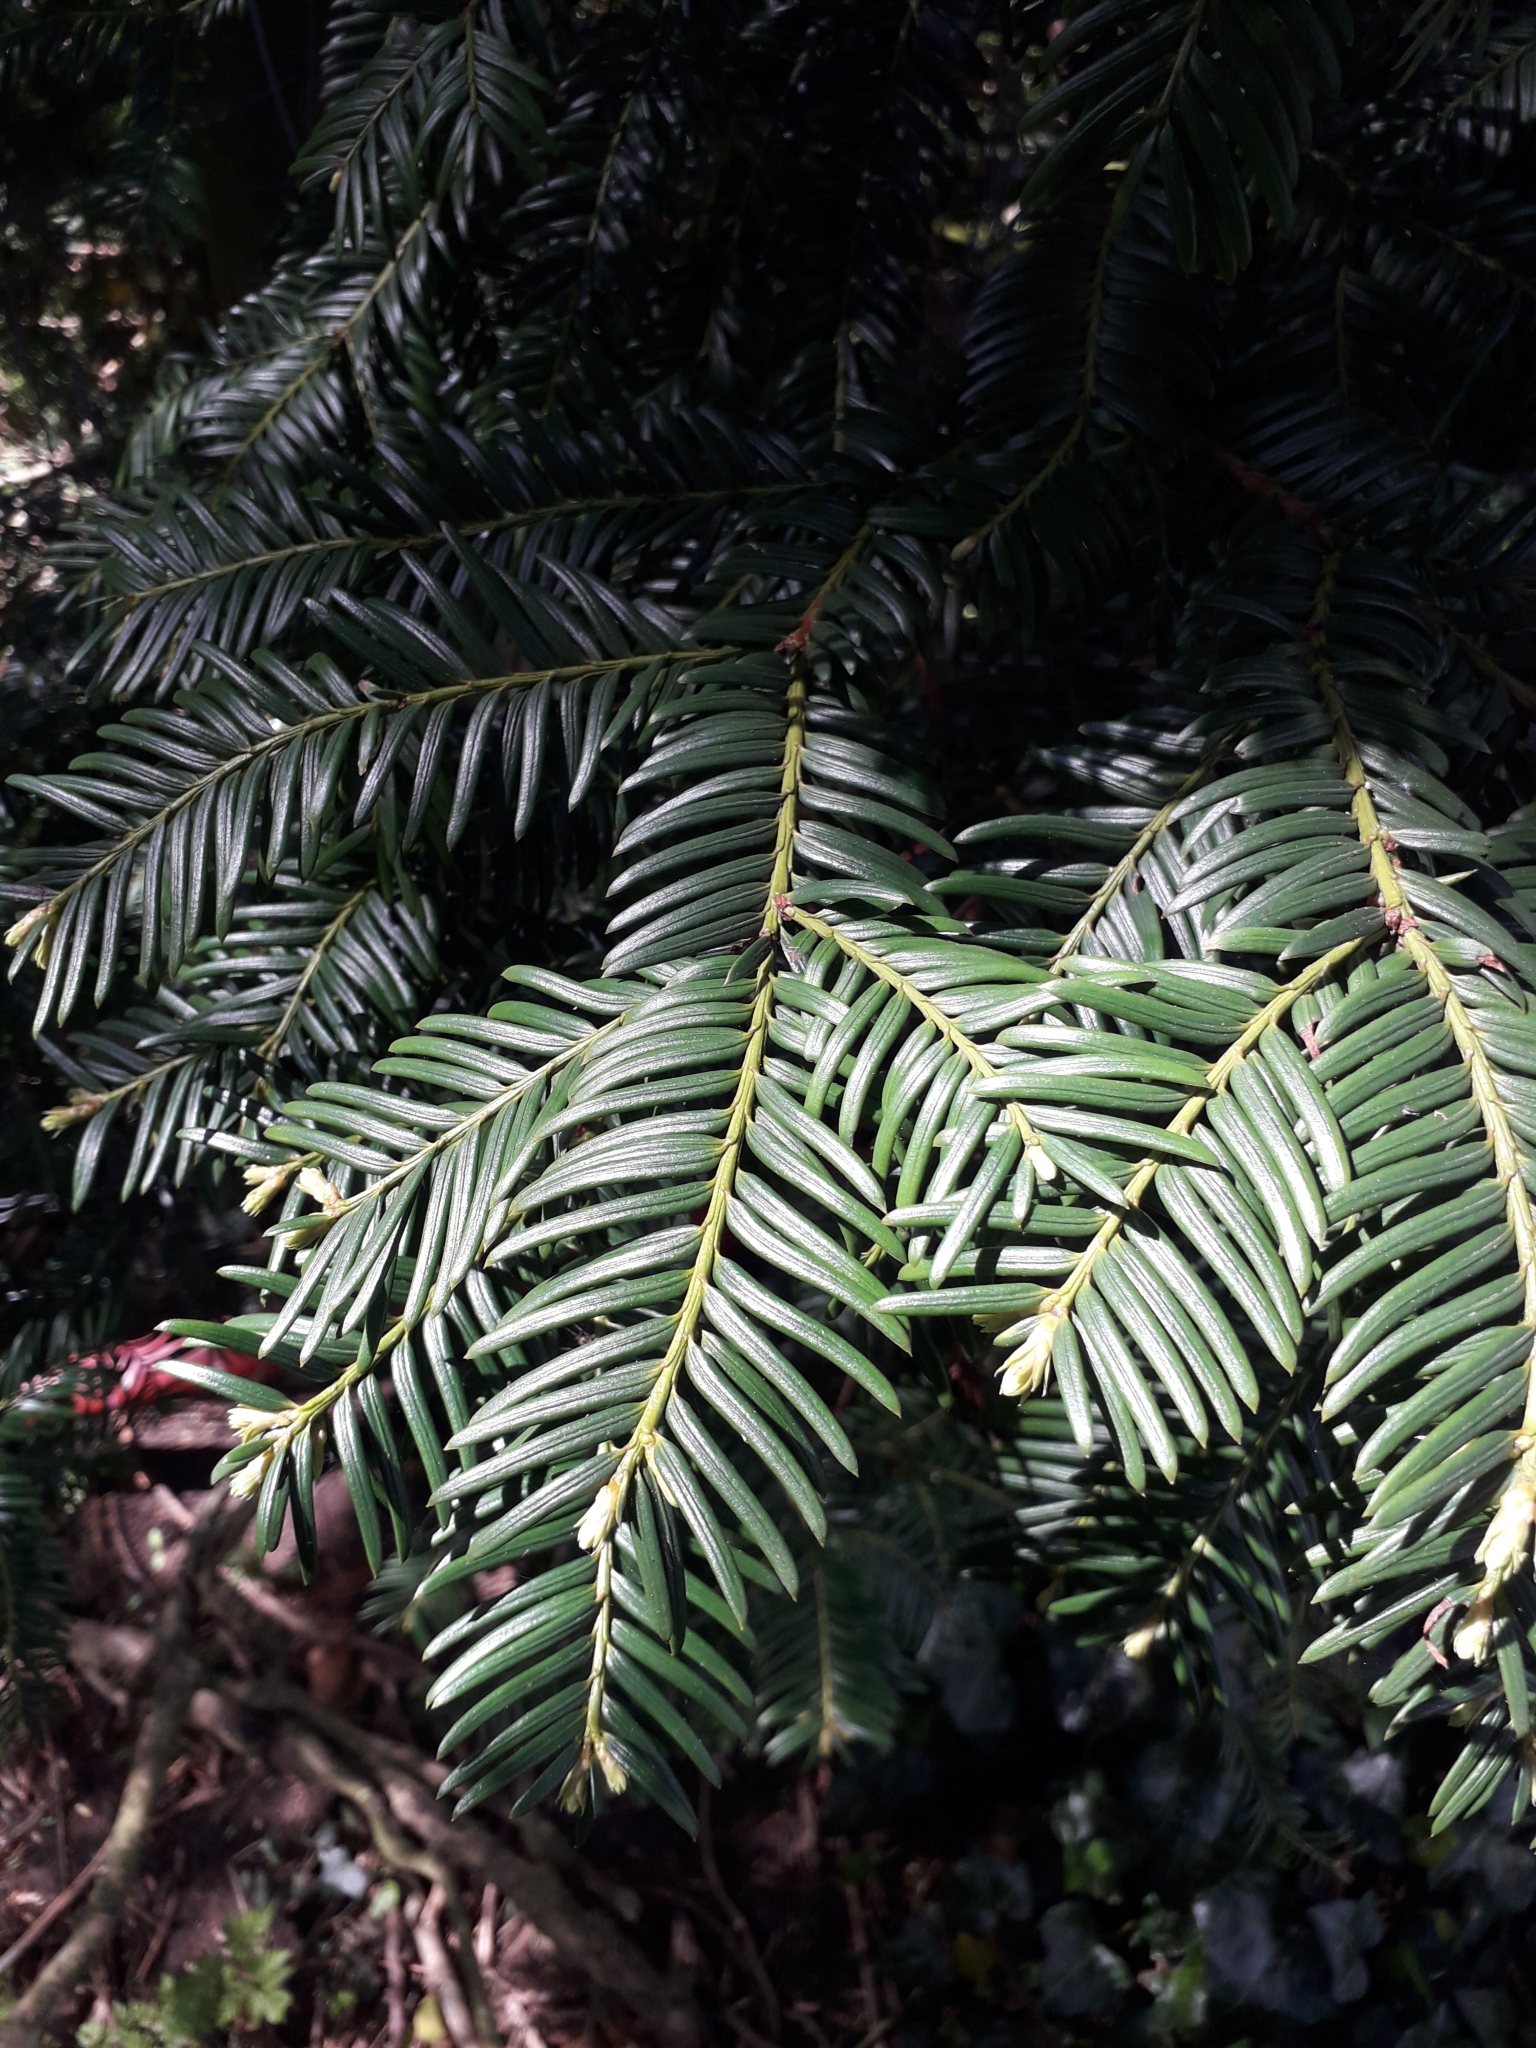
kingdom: Plantae
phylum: Tracheophyta
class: Pinopsida
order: Pinales
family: Taxaceae
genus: Taxus
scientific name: Taxus baccata
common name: Yew
